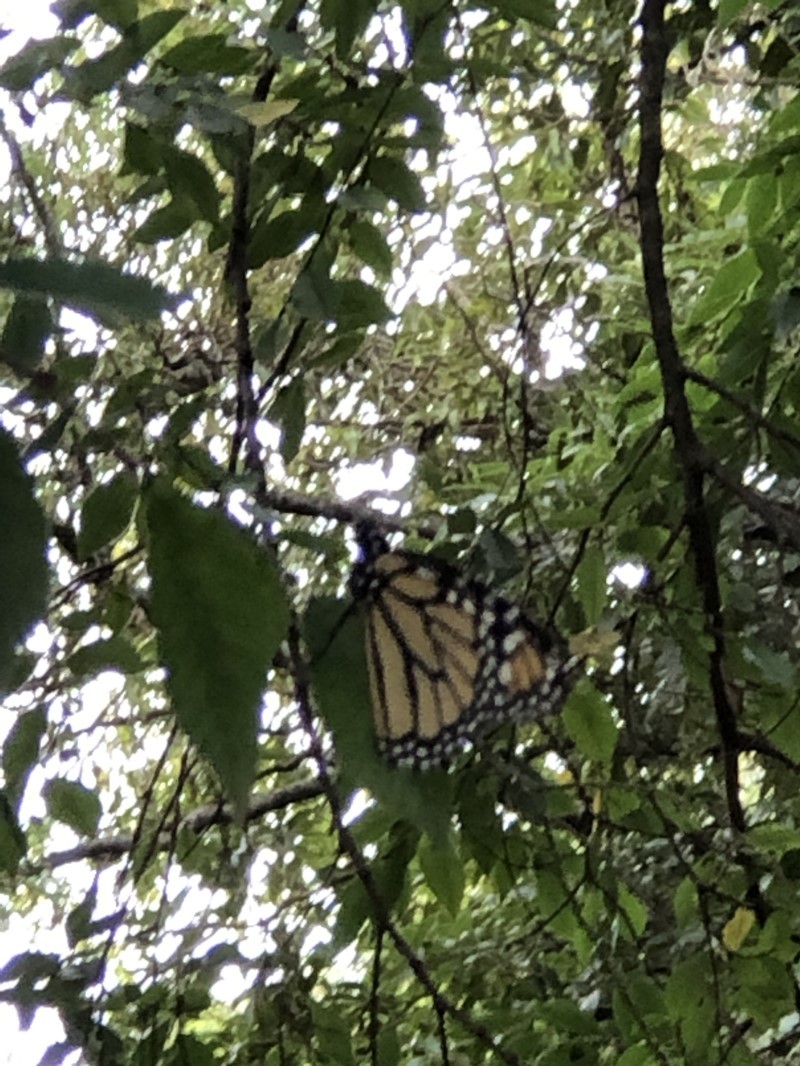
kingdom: Animalia
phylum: Arthropoda
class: Insecta
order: Lepidoptera
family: Nymphalidae
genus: Danaus
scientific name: Danaus plexippus
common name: Monarch
